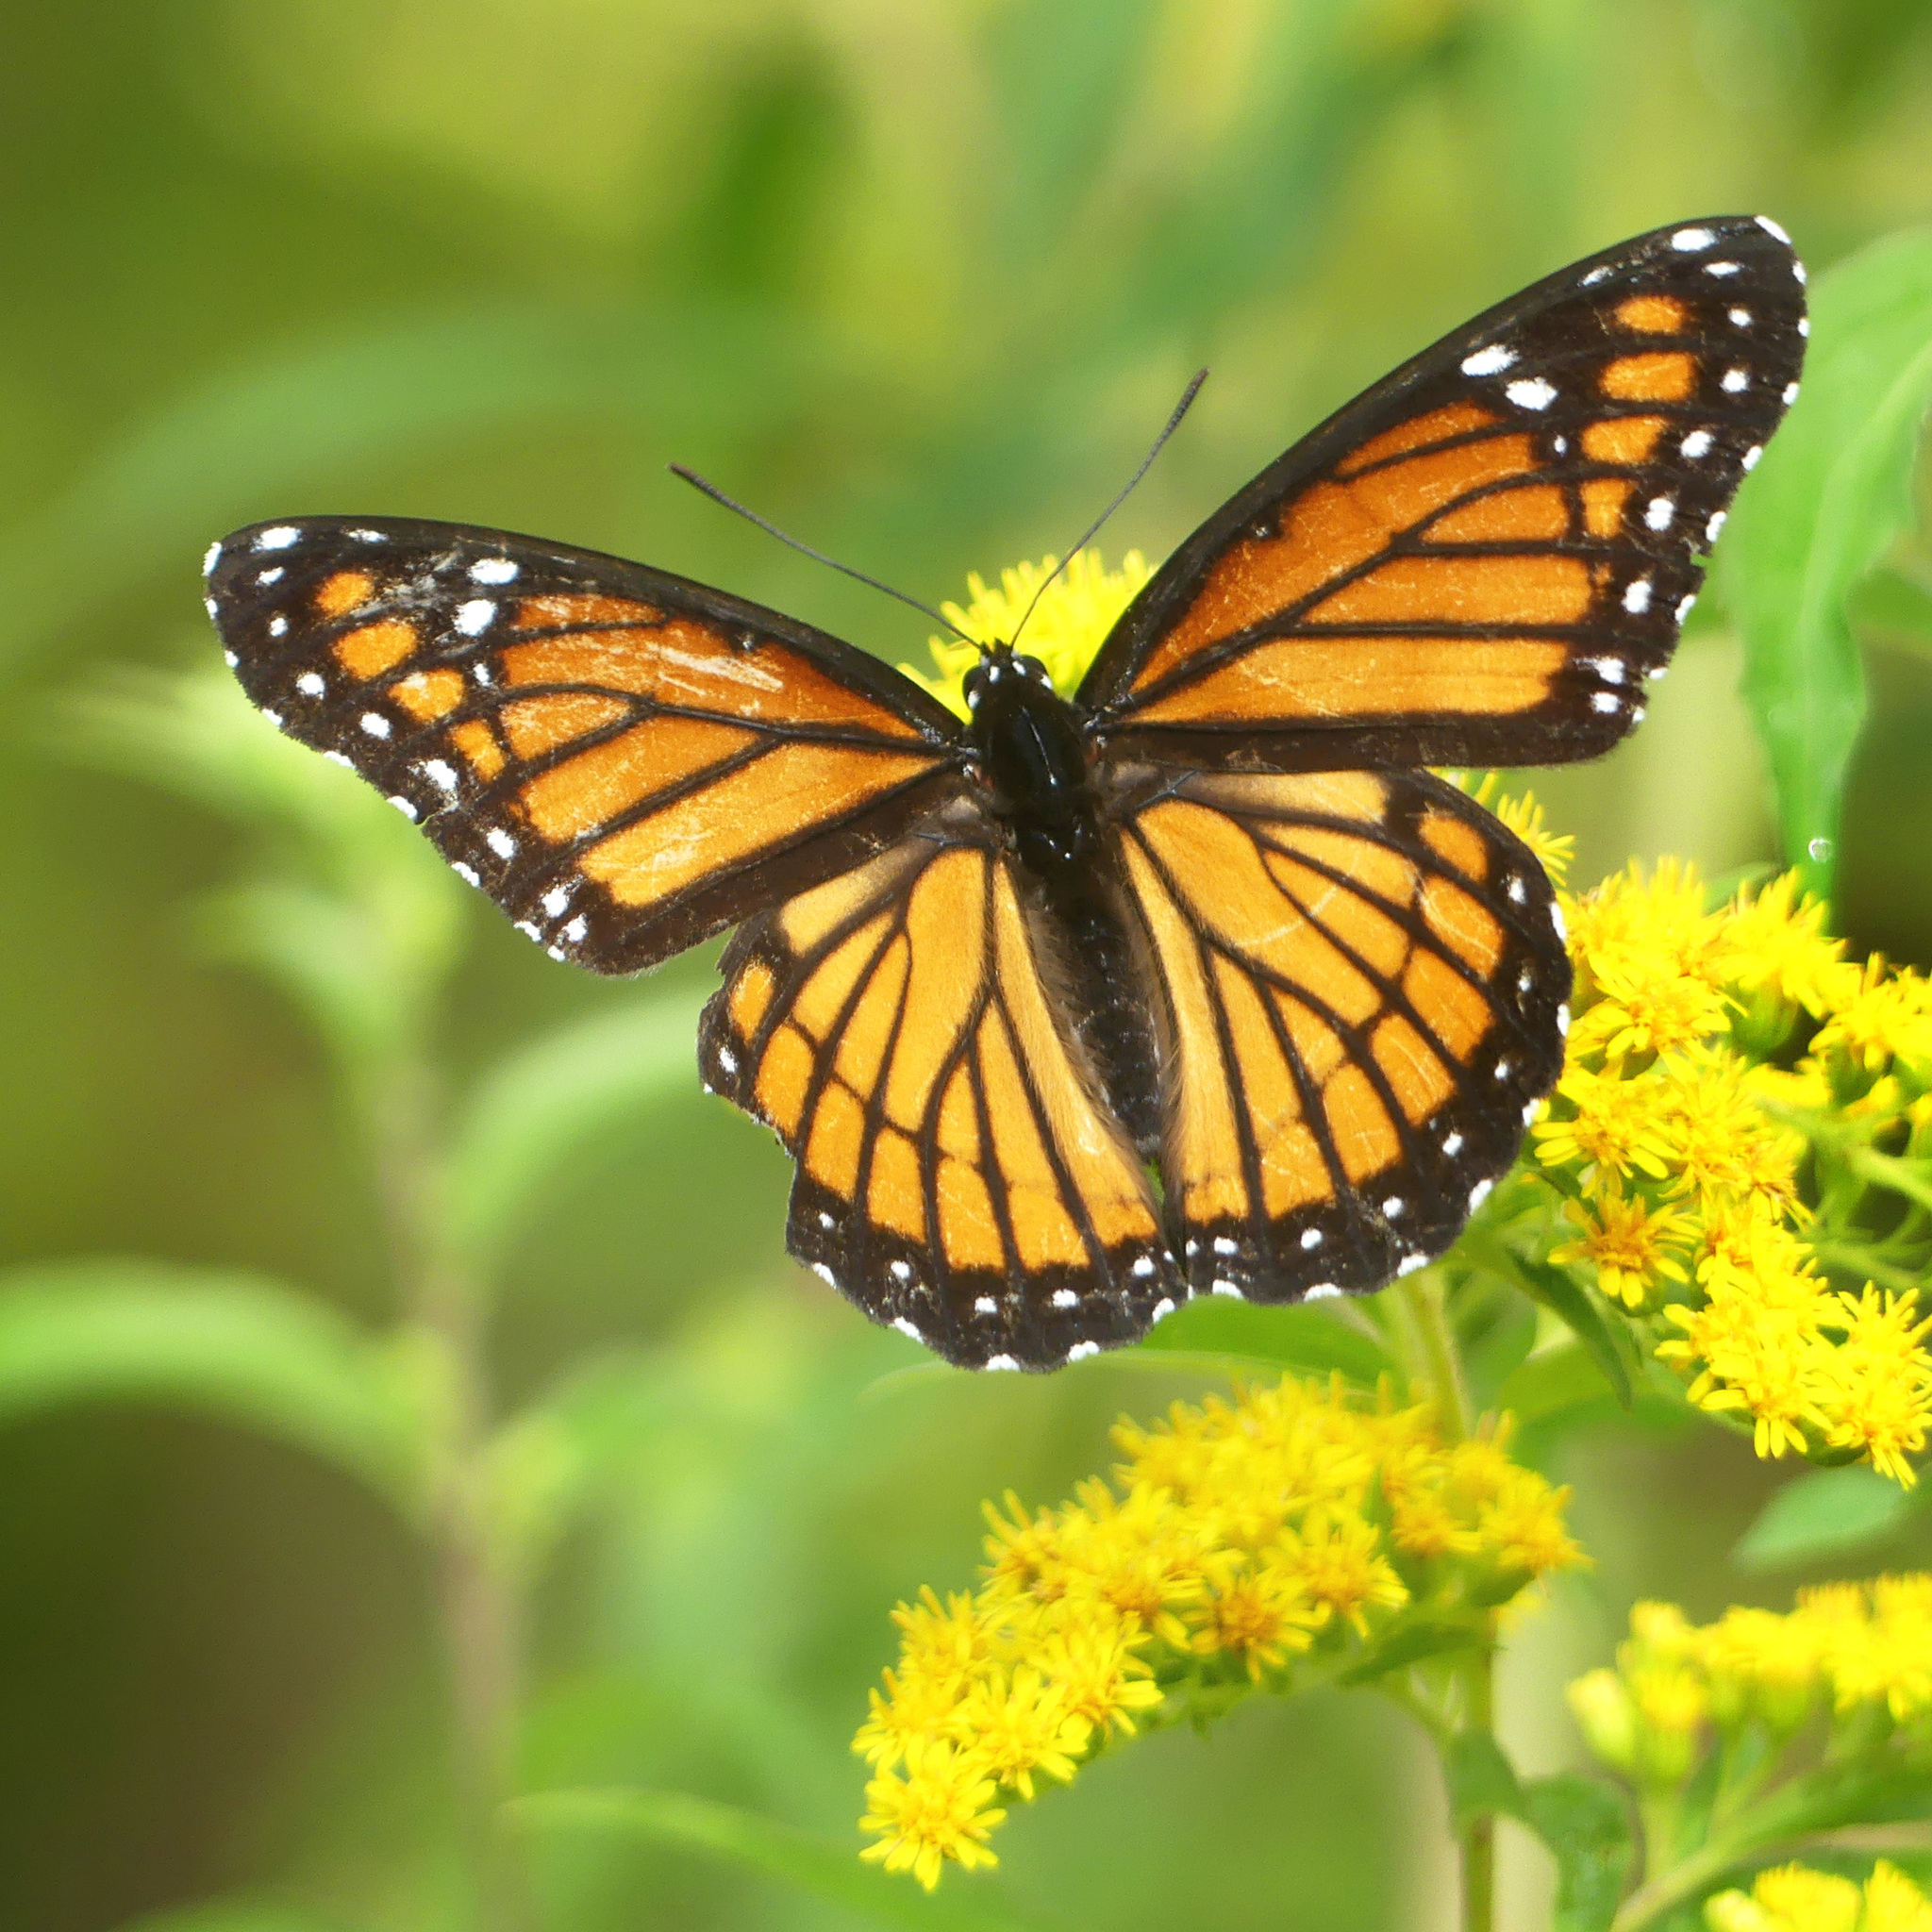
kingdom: Animalia
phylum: Arthropoda
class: Insecta
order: Lepidoptera
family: Nymphalidae
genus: Limenitis
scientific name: Limenitis archippus
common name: Viceroy
